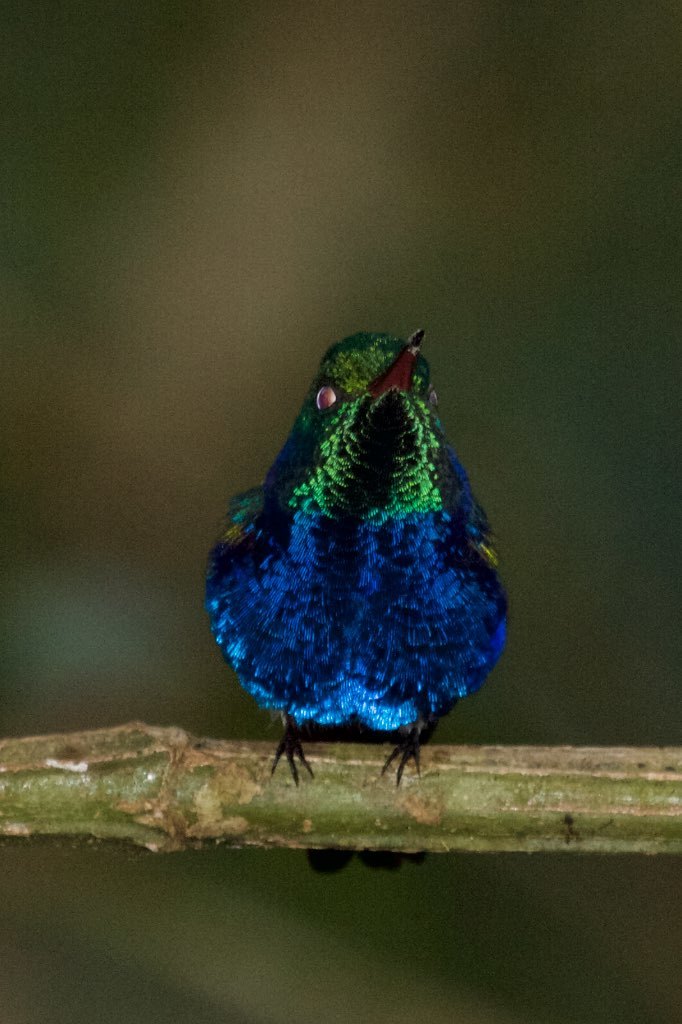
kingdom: Animalia
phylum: Chordata
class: Aves
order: Apodiformes
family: Trochilidae
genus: Chlorestes
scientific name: Chlorestes julie
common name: Violet-bellied hummingbird
